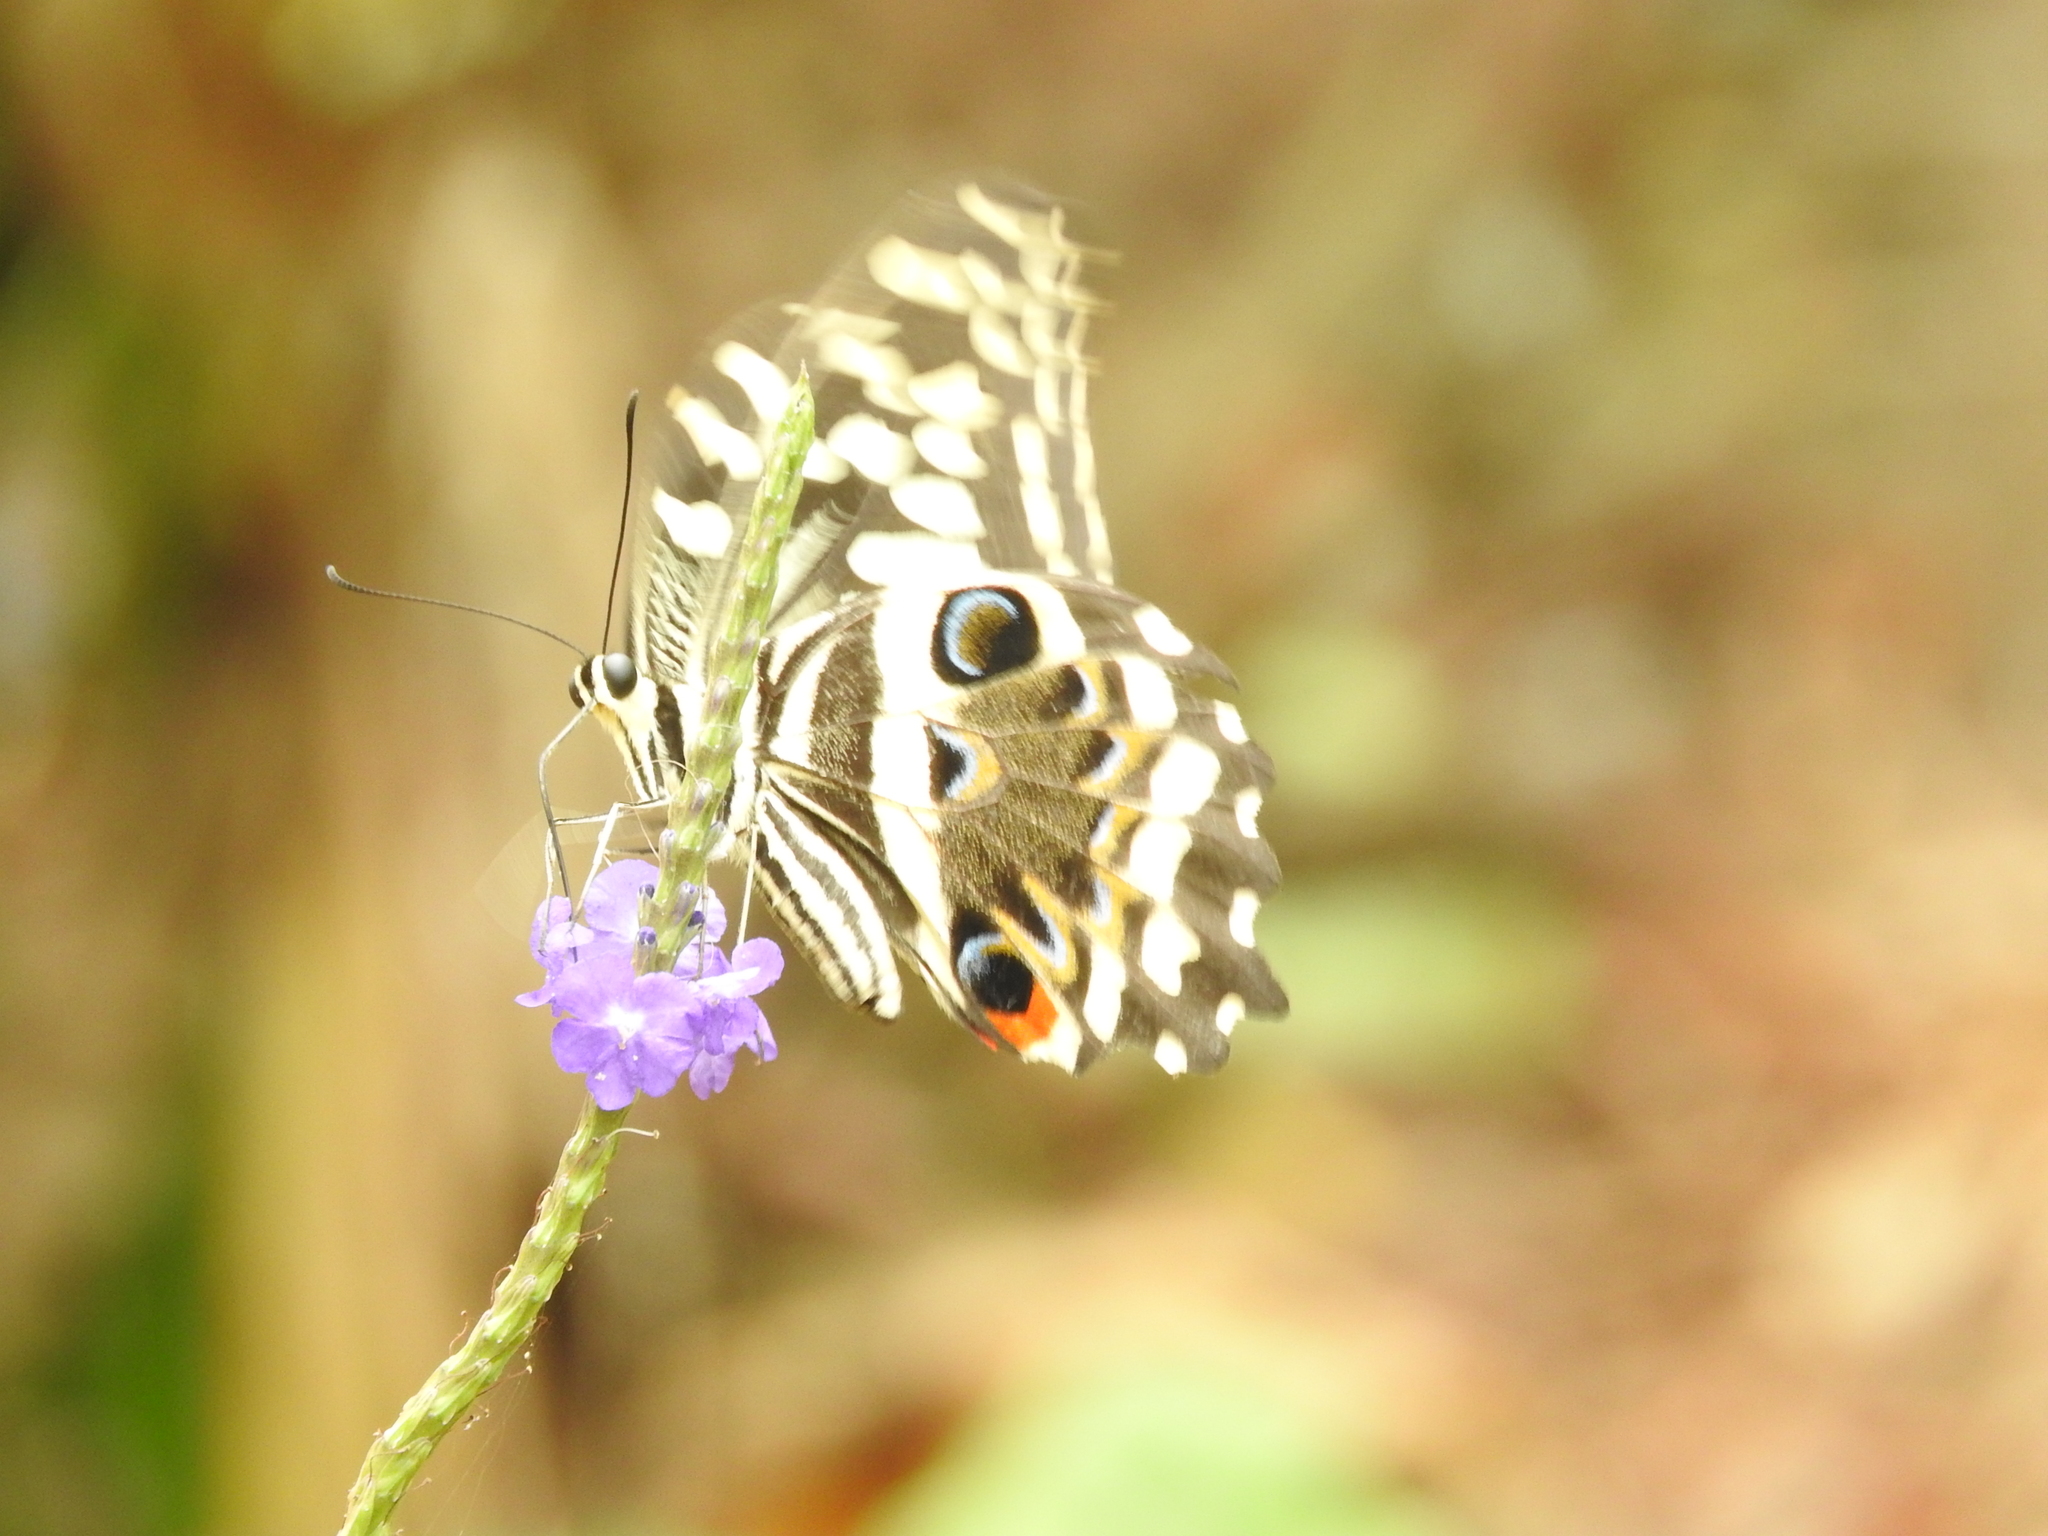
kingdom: Animalia
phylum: Arthropoda
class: Insecta
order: Lepidoptera
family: Papilionidae
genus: Papilio
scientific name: Papilio demodocus
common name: Christmas butterfly
